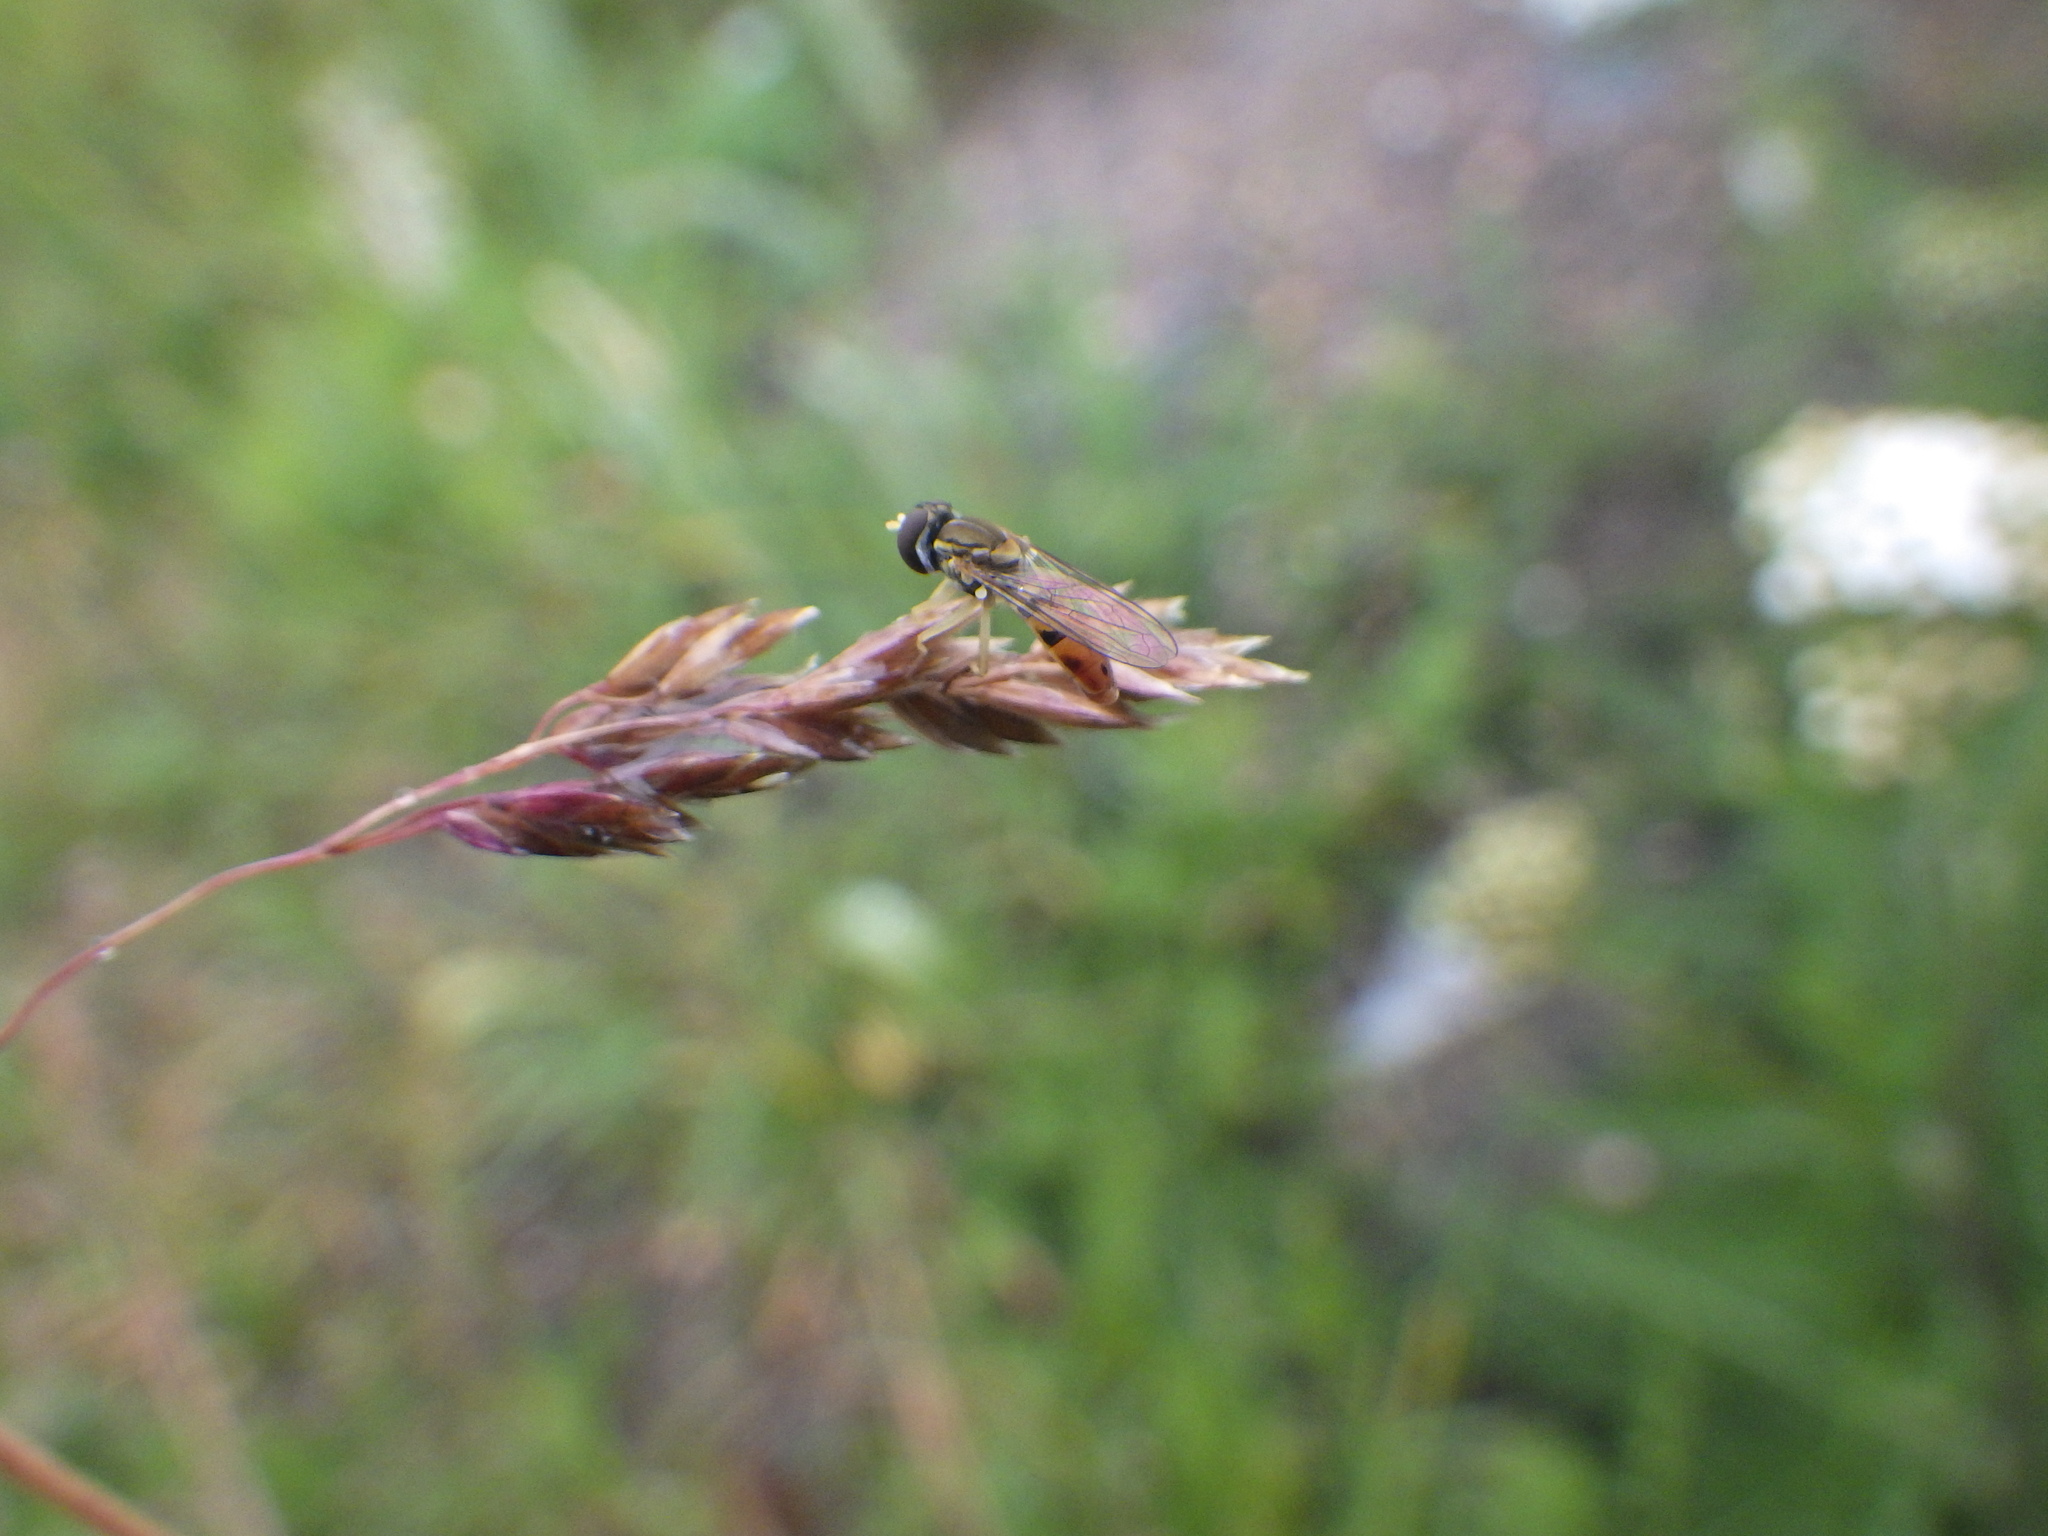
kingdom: Animalia
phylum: Arthropoda
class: Insecta
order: Diptera
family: Syrphidae
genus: Toxomerus
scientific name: Toxomerus marginatus
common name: Syrphid fly
